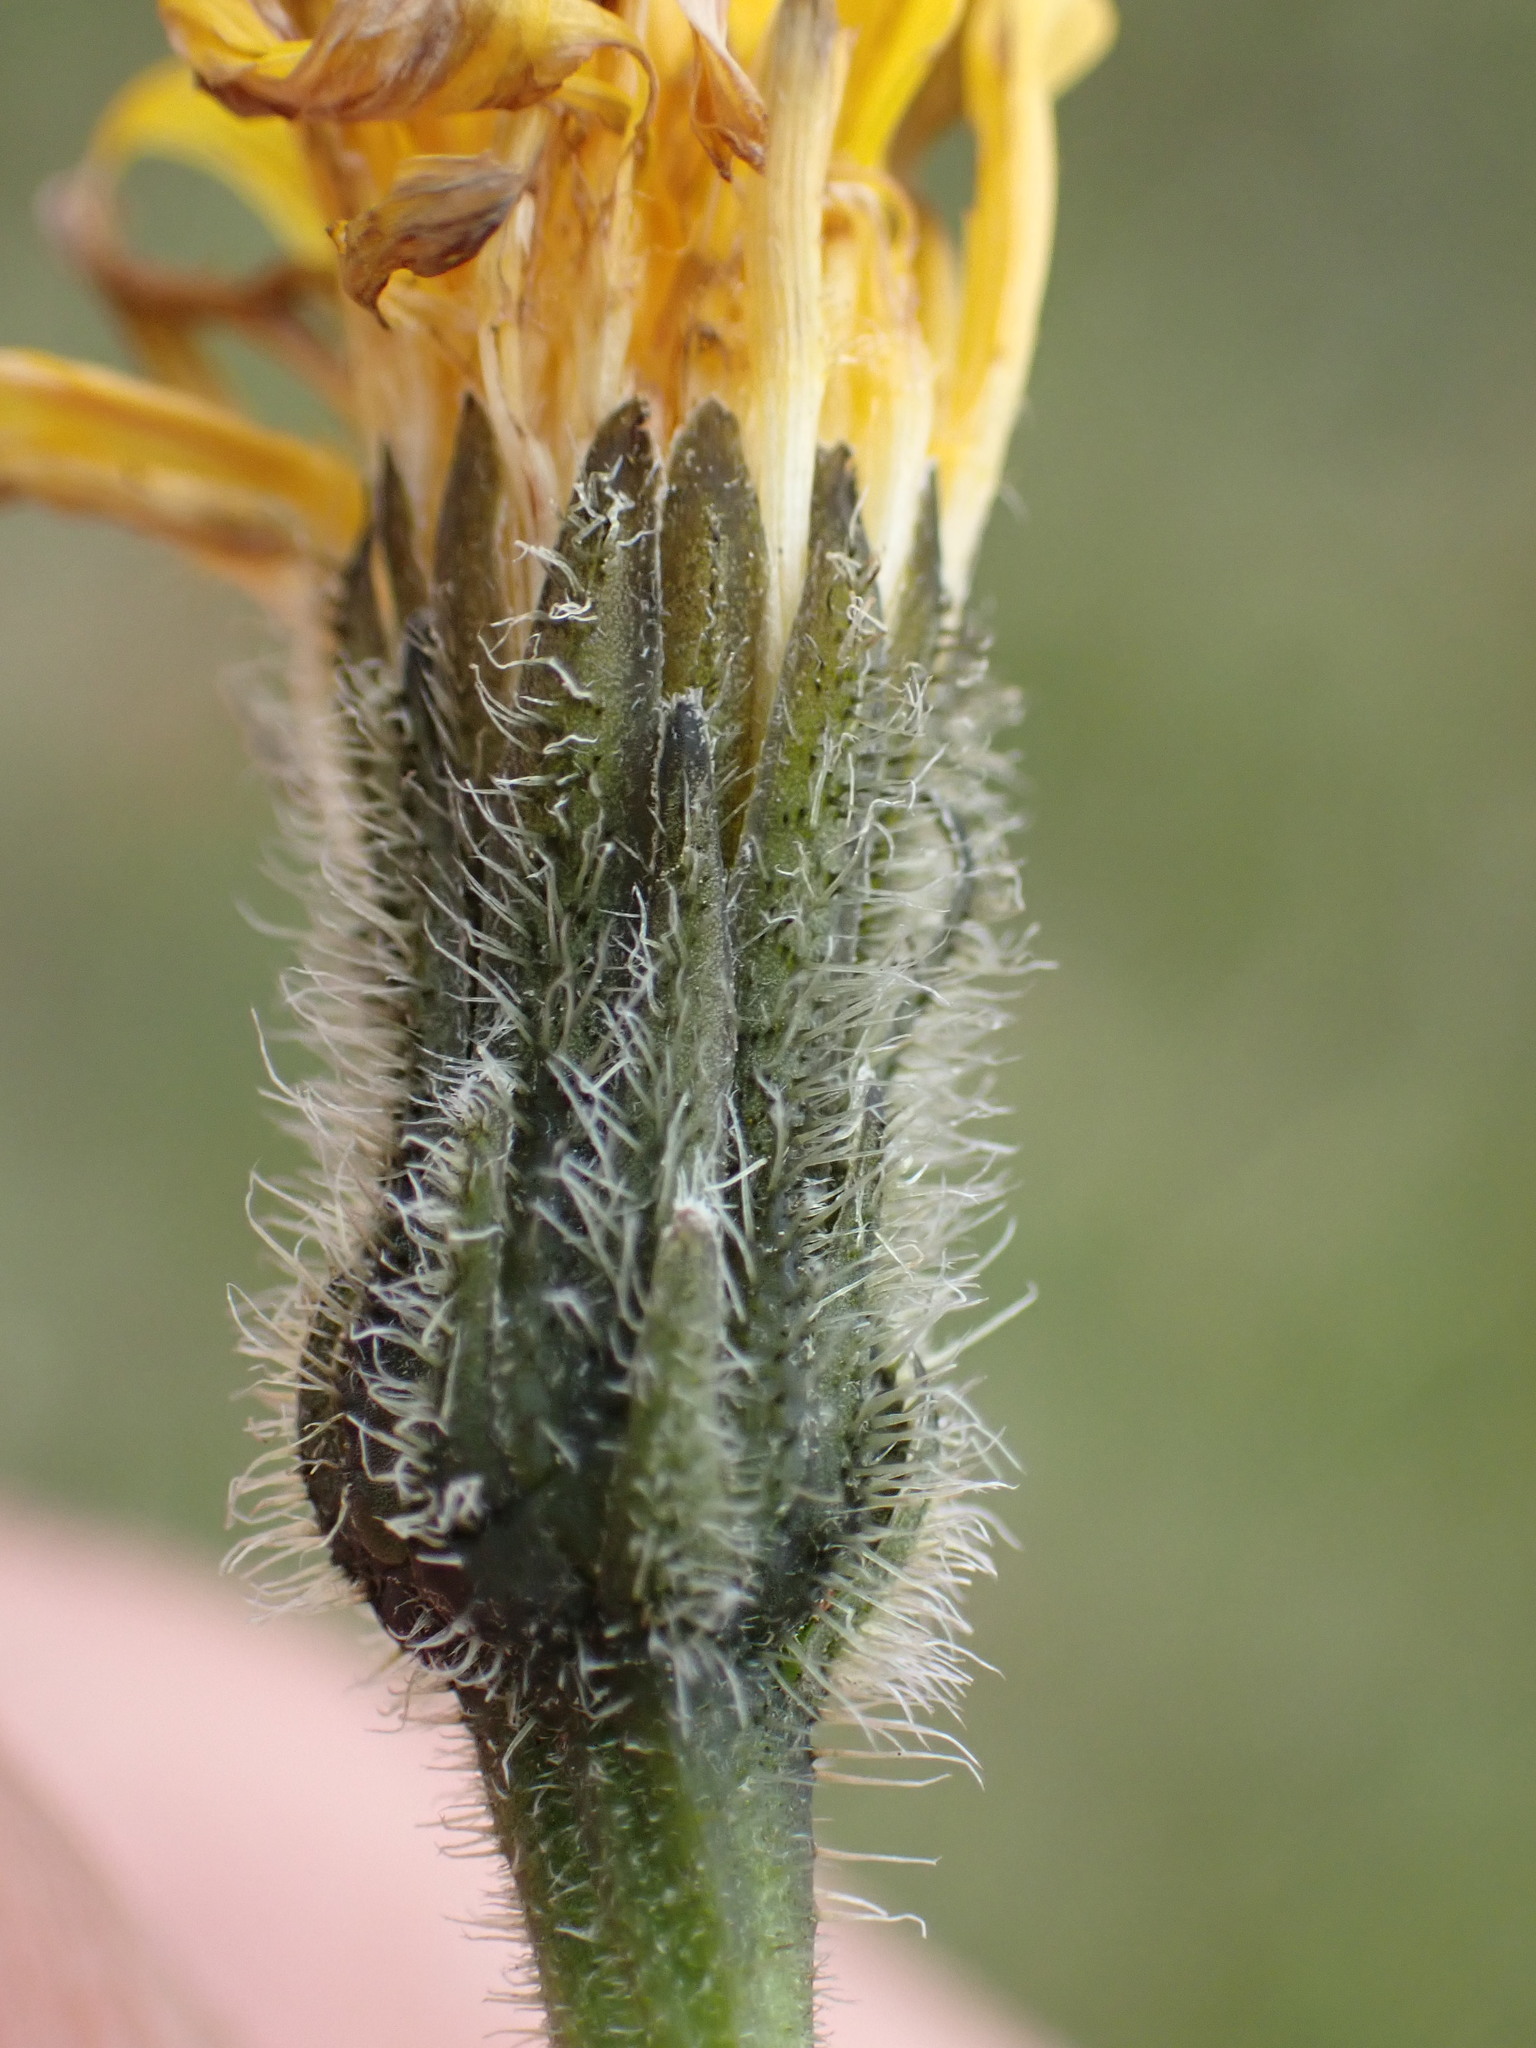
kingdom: Plantae
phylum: Tracheophyta
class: Magnoliopsida
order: Asterales
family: Asteraceae
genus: Leontodon
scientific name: Leontodon hispidus
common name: Rough hawkbit
